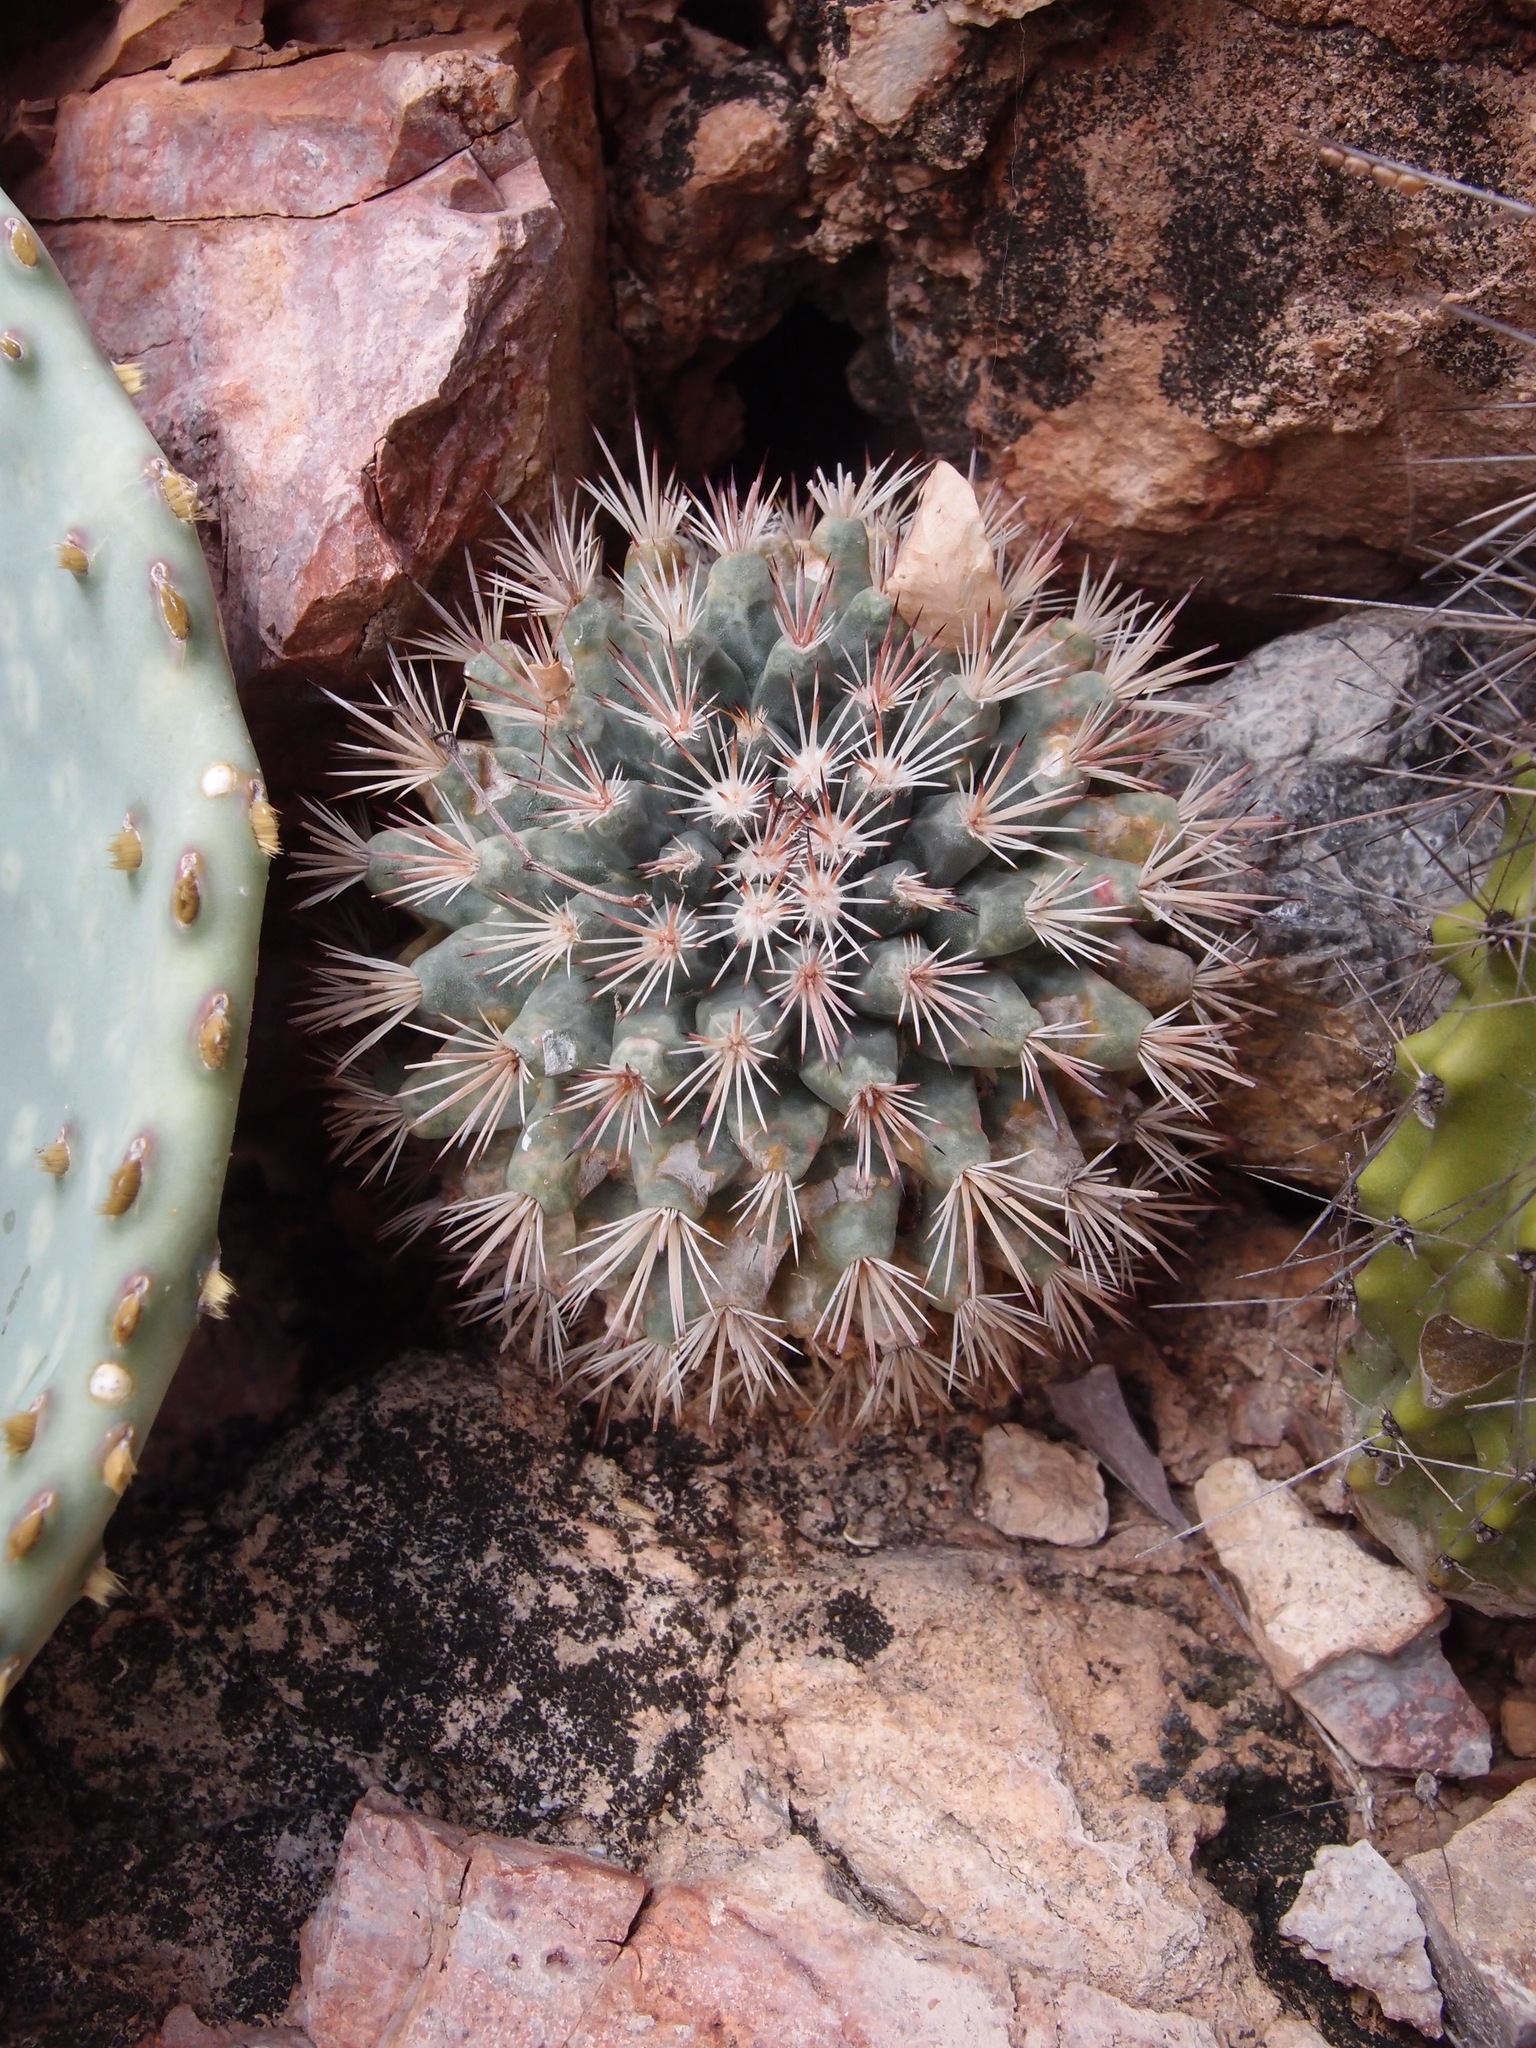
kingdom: Plantae
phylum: Tracheophyta
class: Magnoliopsida
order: Caryophyllales
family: Cactaceae
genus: Mammillaria
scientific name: Mammillaria johnstonii
